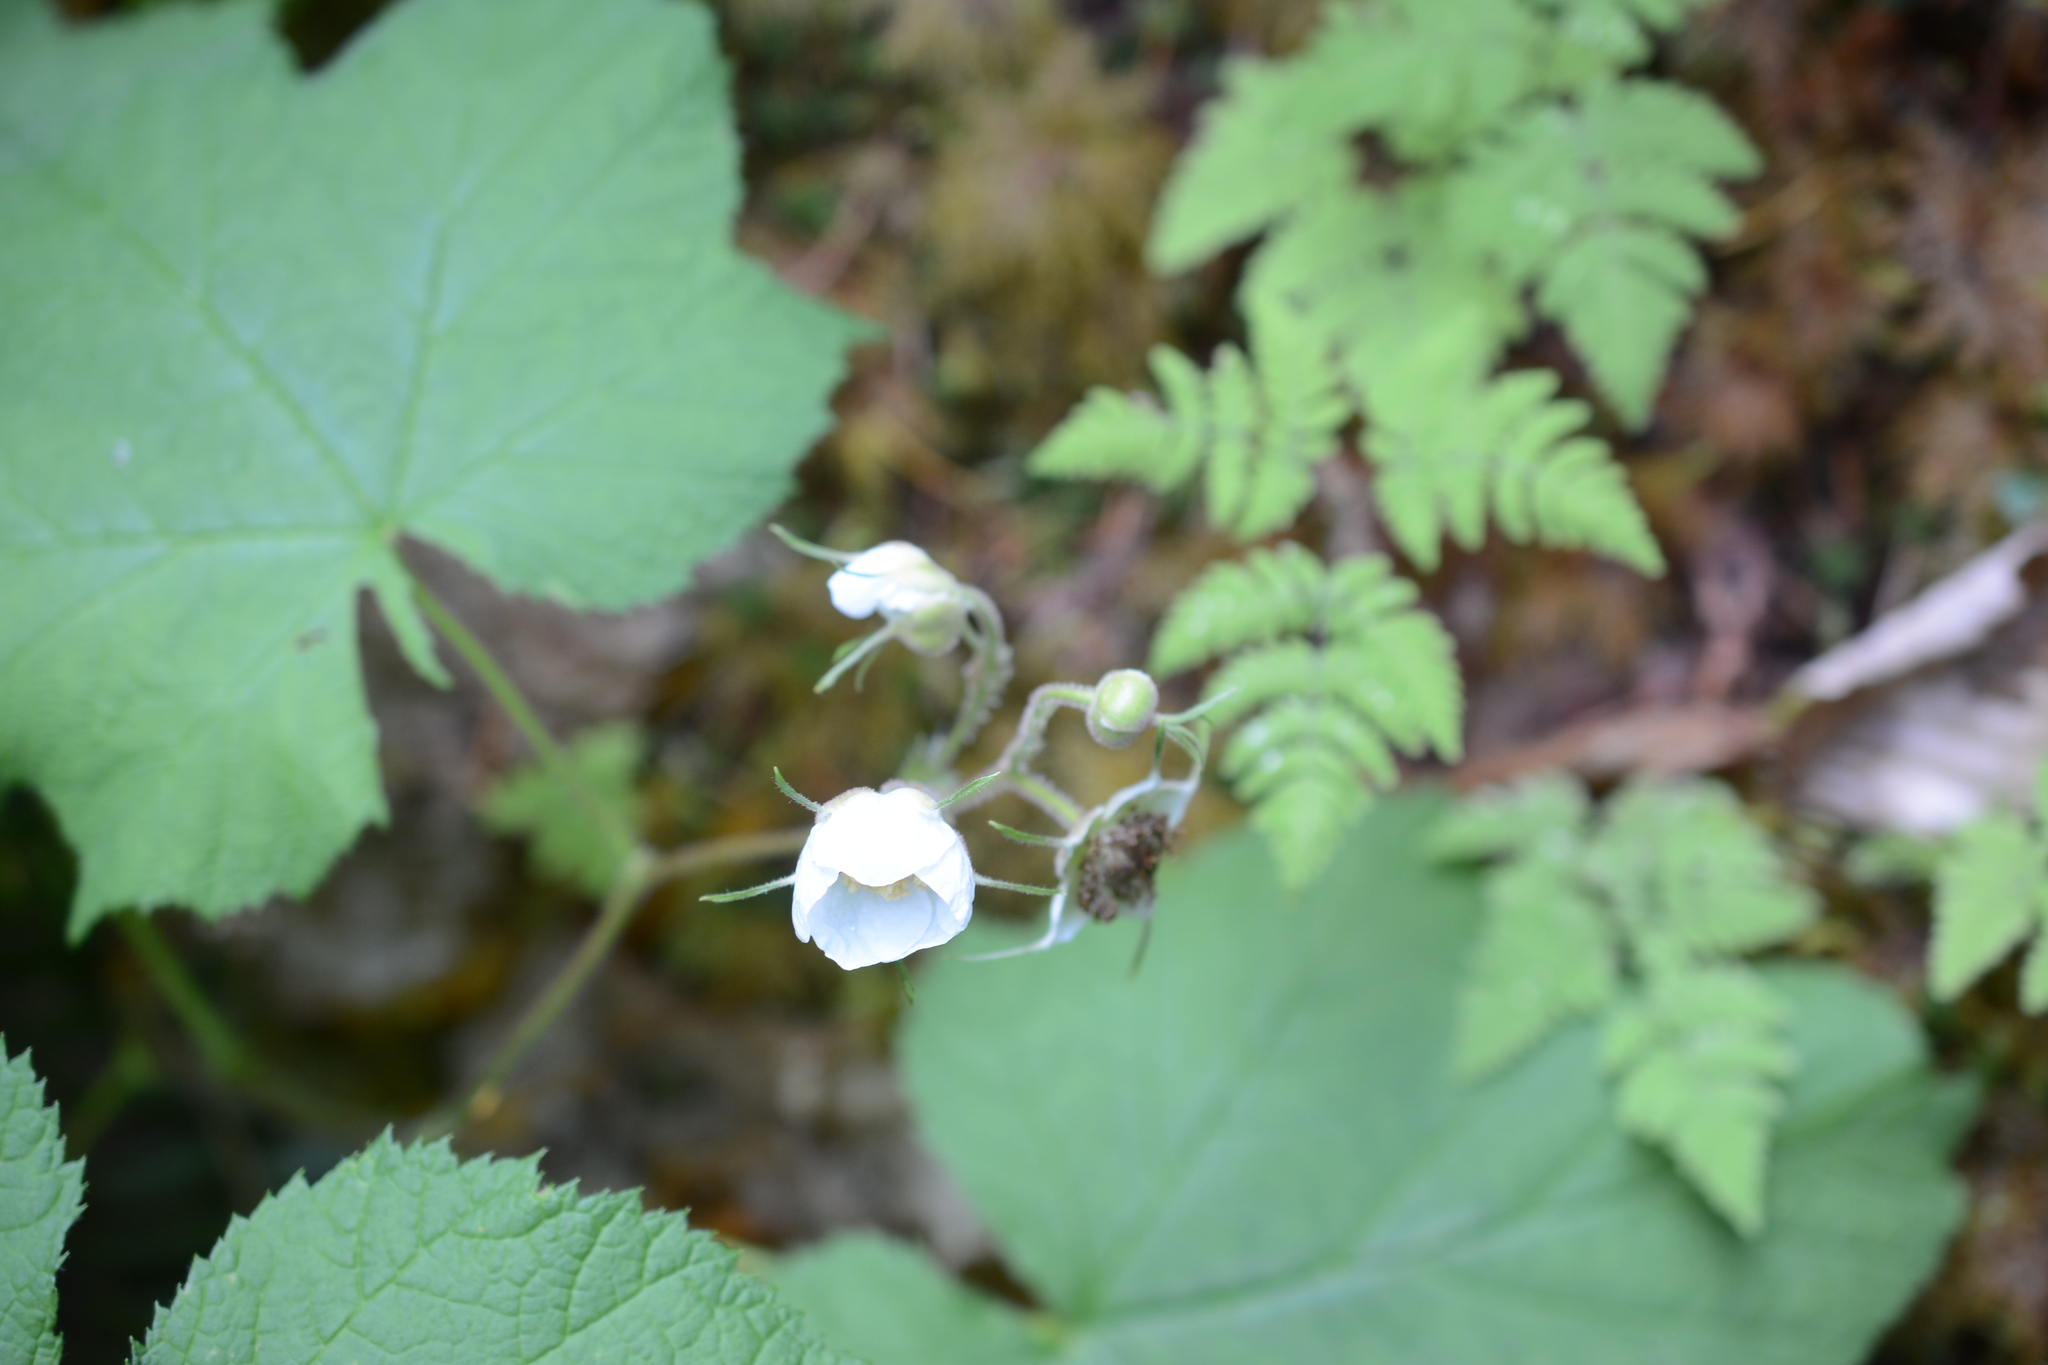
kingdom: Plantae
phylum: Tracheophyta
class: Magnoliopsida
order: Rosales
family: Rosaceae
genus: Rubus
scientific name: Rubus parviflorus
